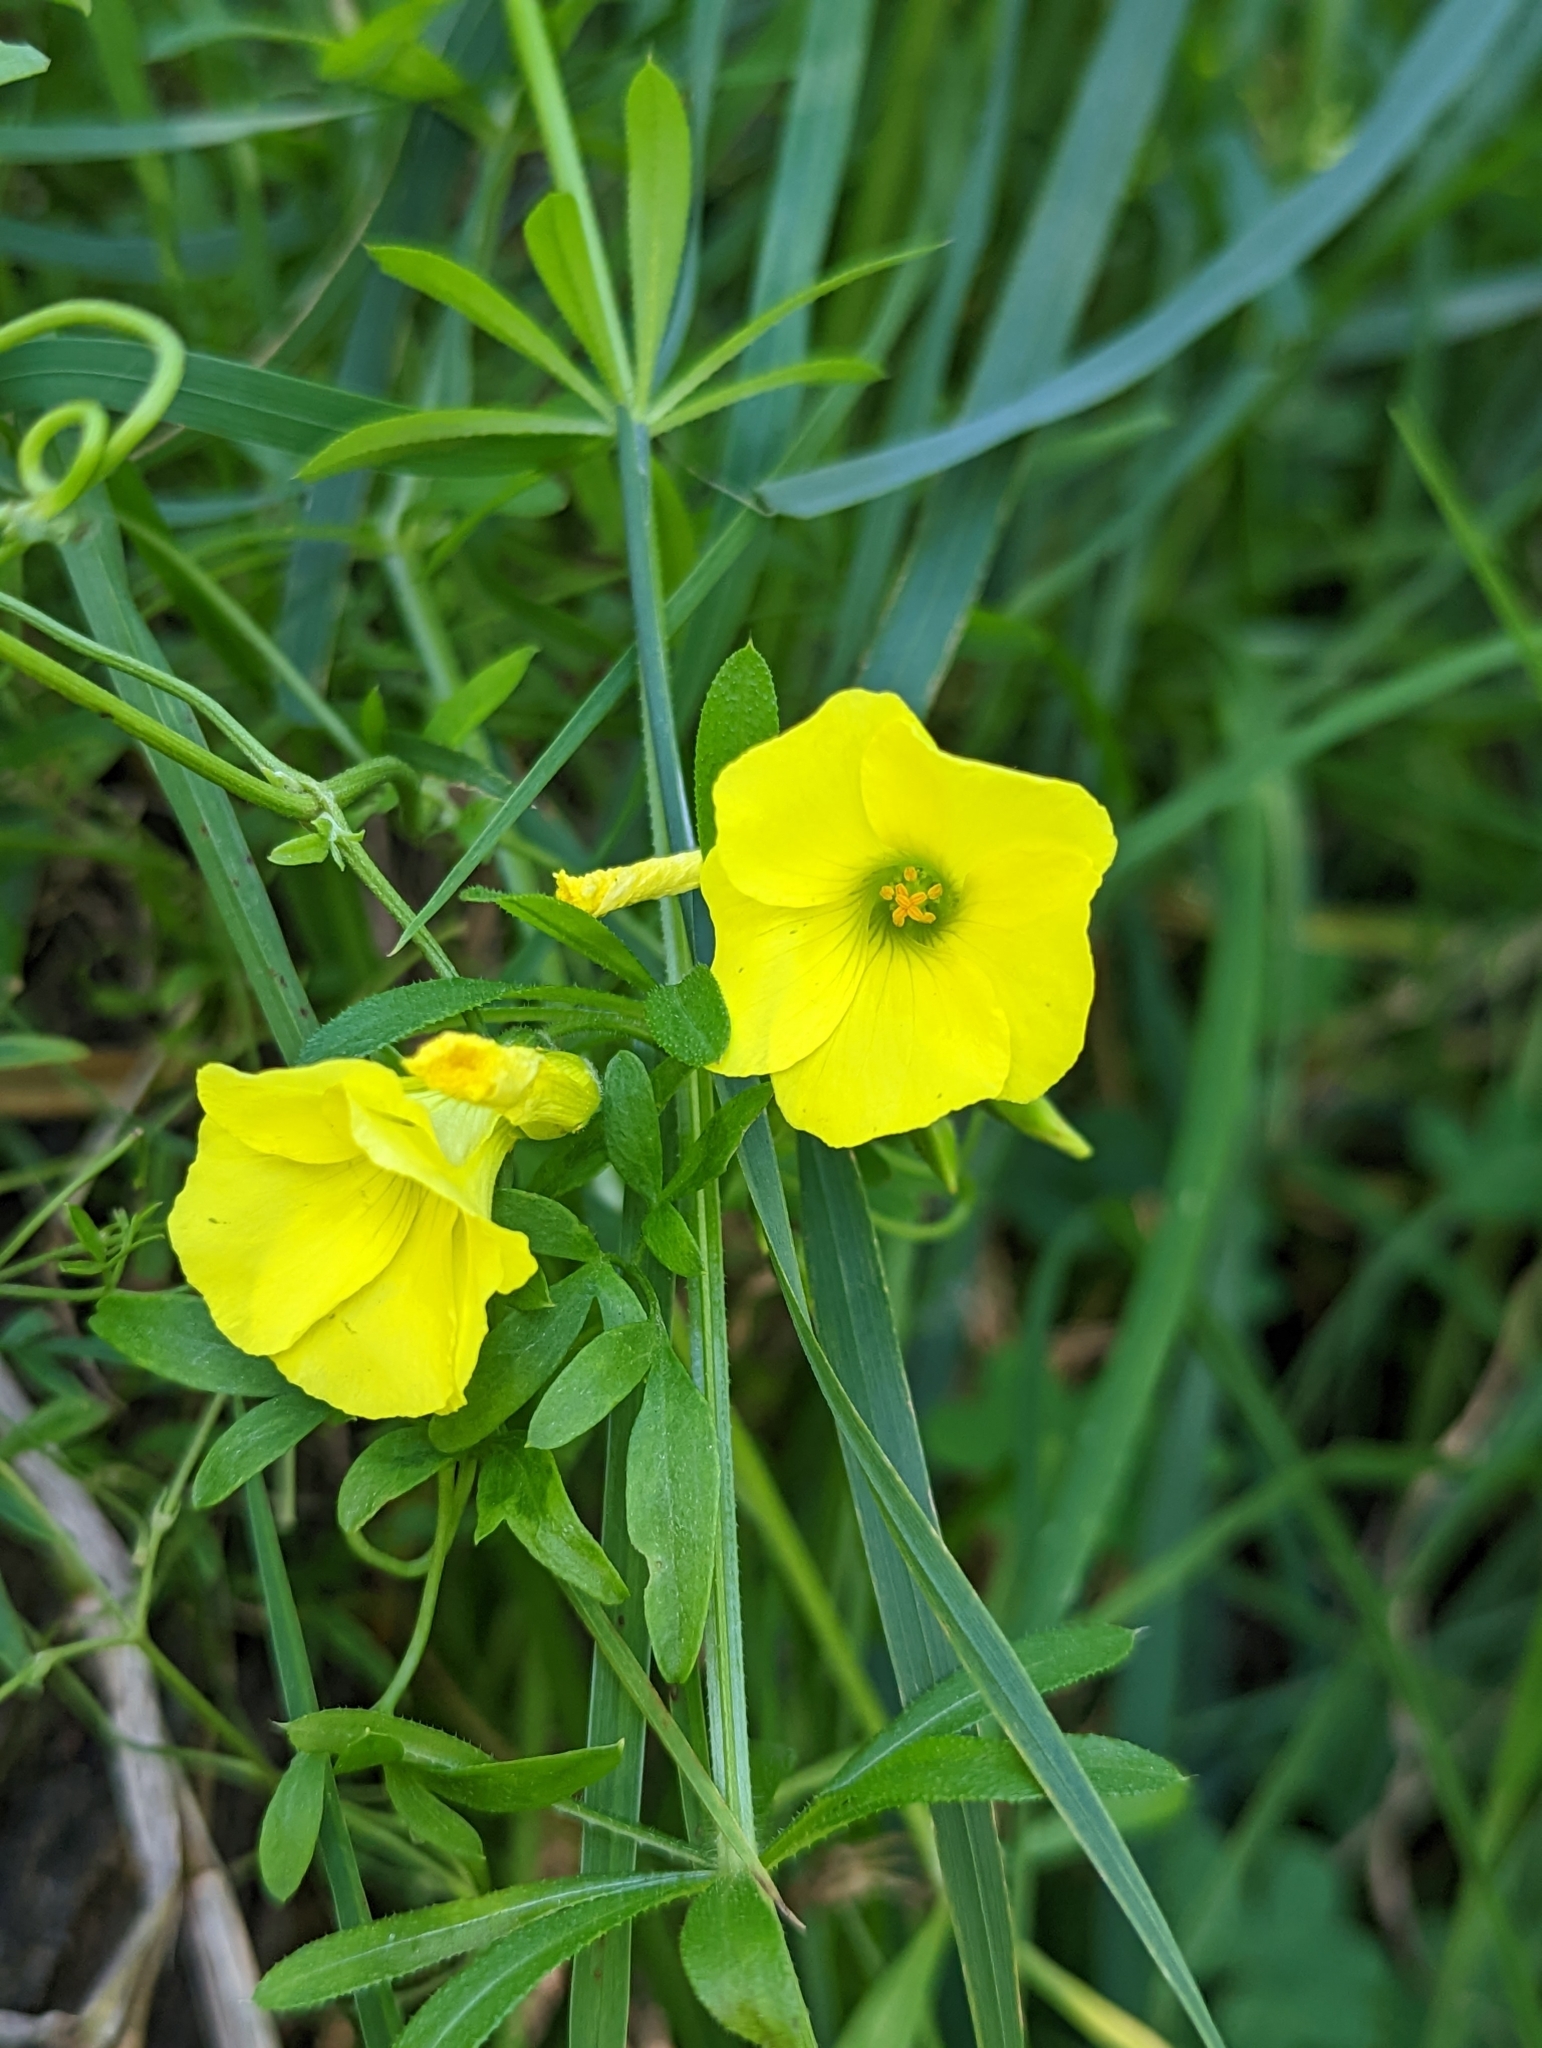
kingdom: Plantae
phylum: Tracheophyta
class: Magnoliopsida
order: Oxalidales
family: Oxalidaceae
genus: Oxalis
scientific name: Oxalis pes-caprae
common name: Bermuda-buttercup
